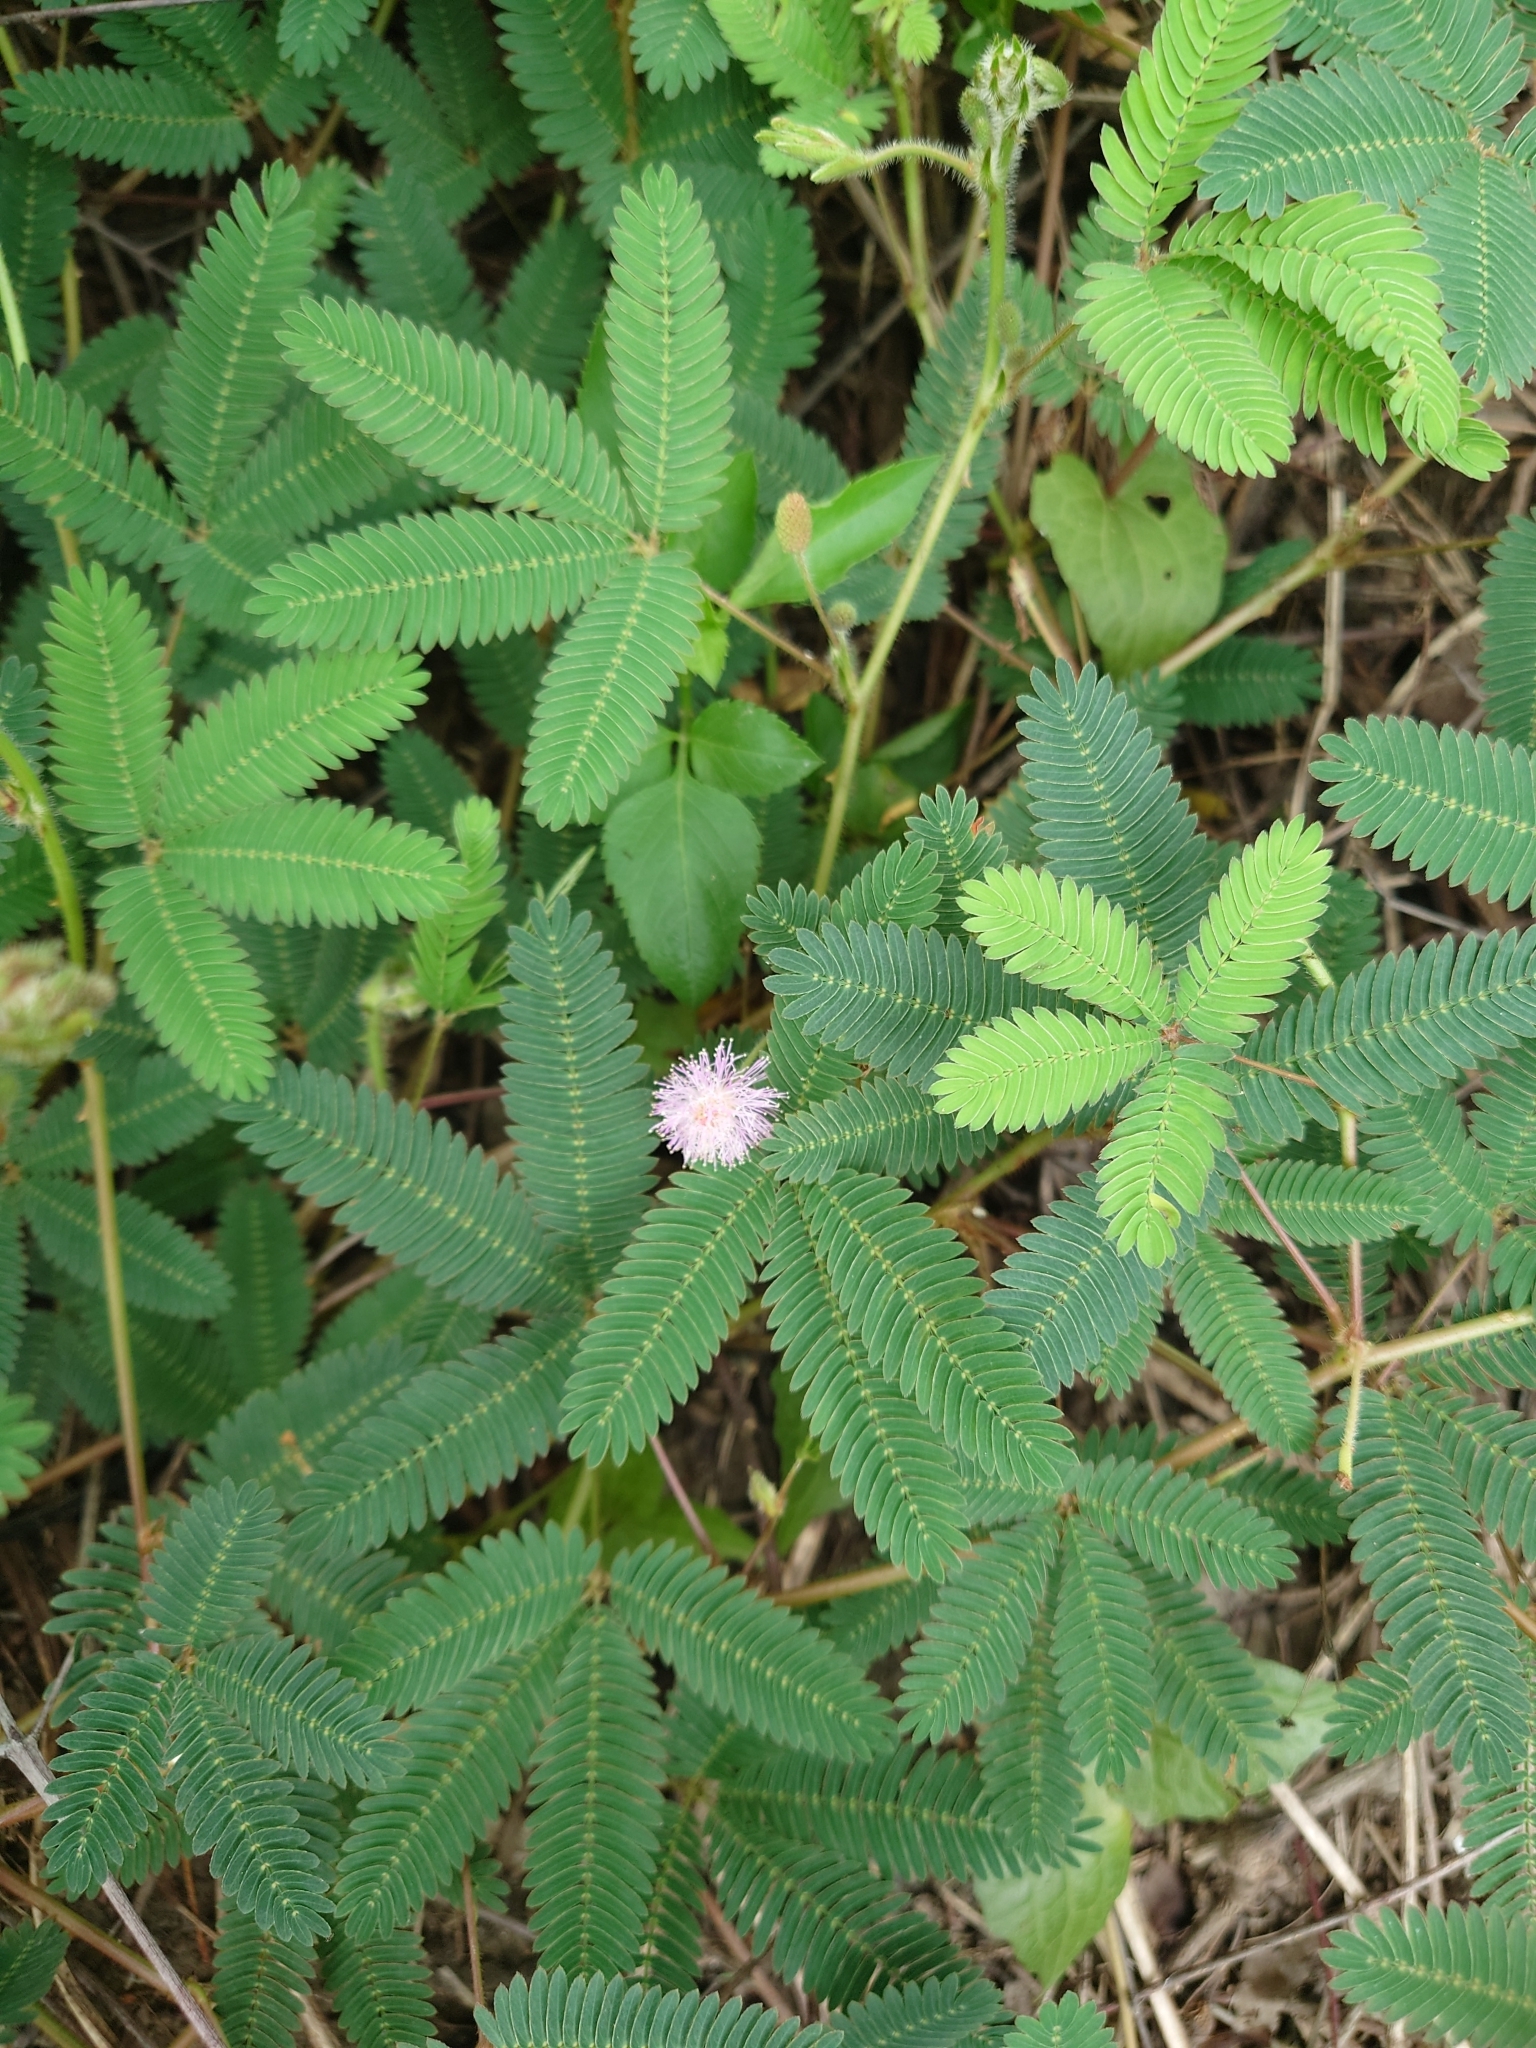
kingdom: Plantae
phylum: Tracheophyta
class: Magnoliopsida
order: Fabales
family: Fabaceae
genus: Mimosa
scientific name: Mimosa pudica
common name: Sensitive plant
